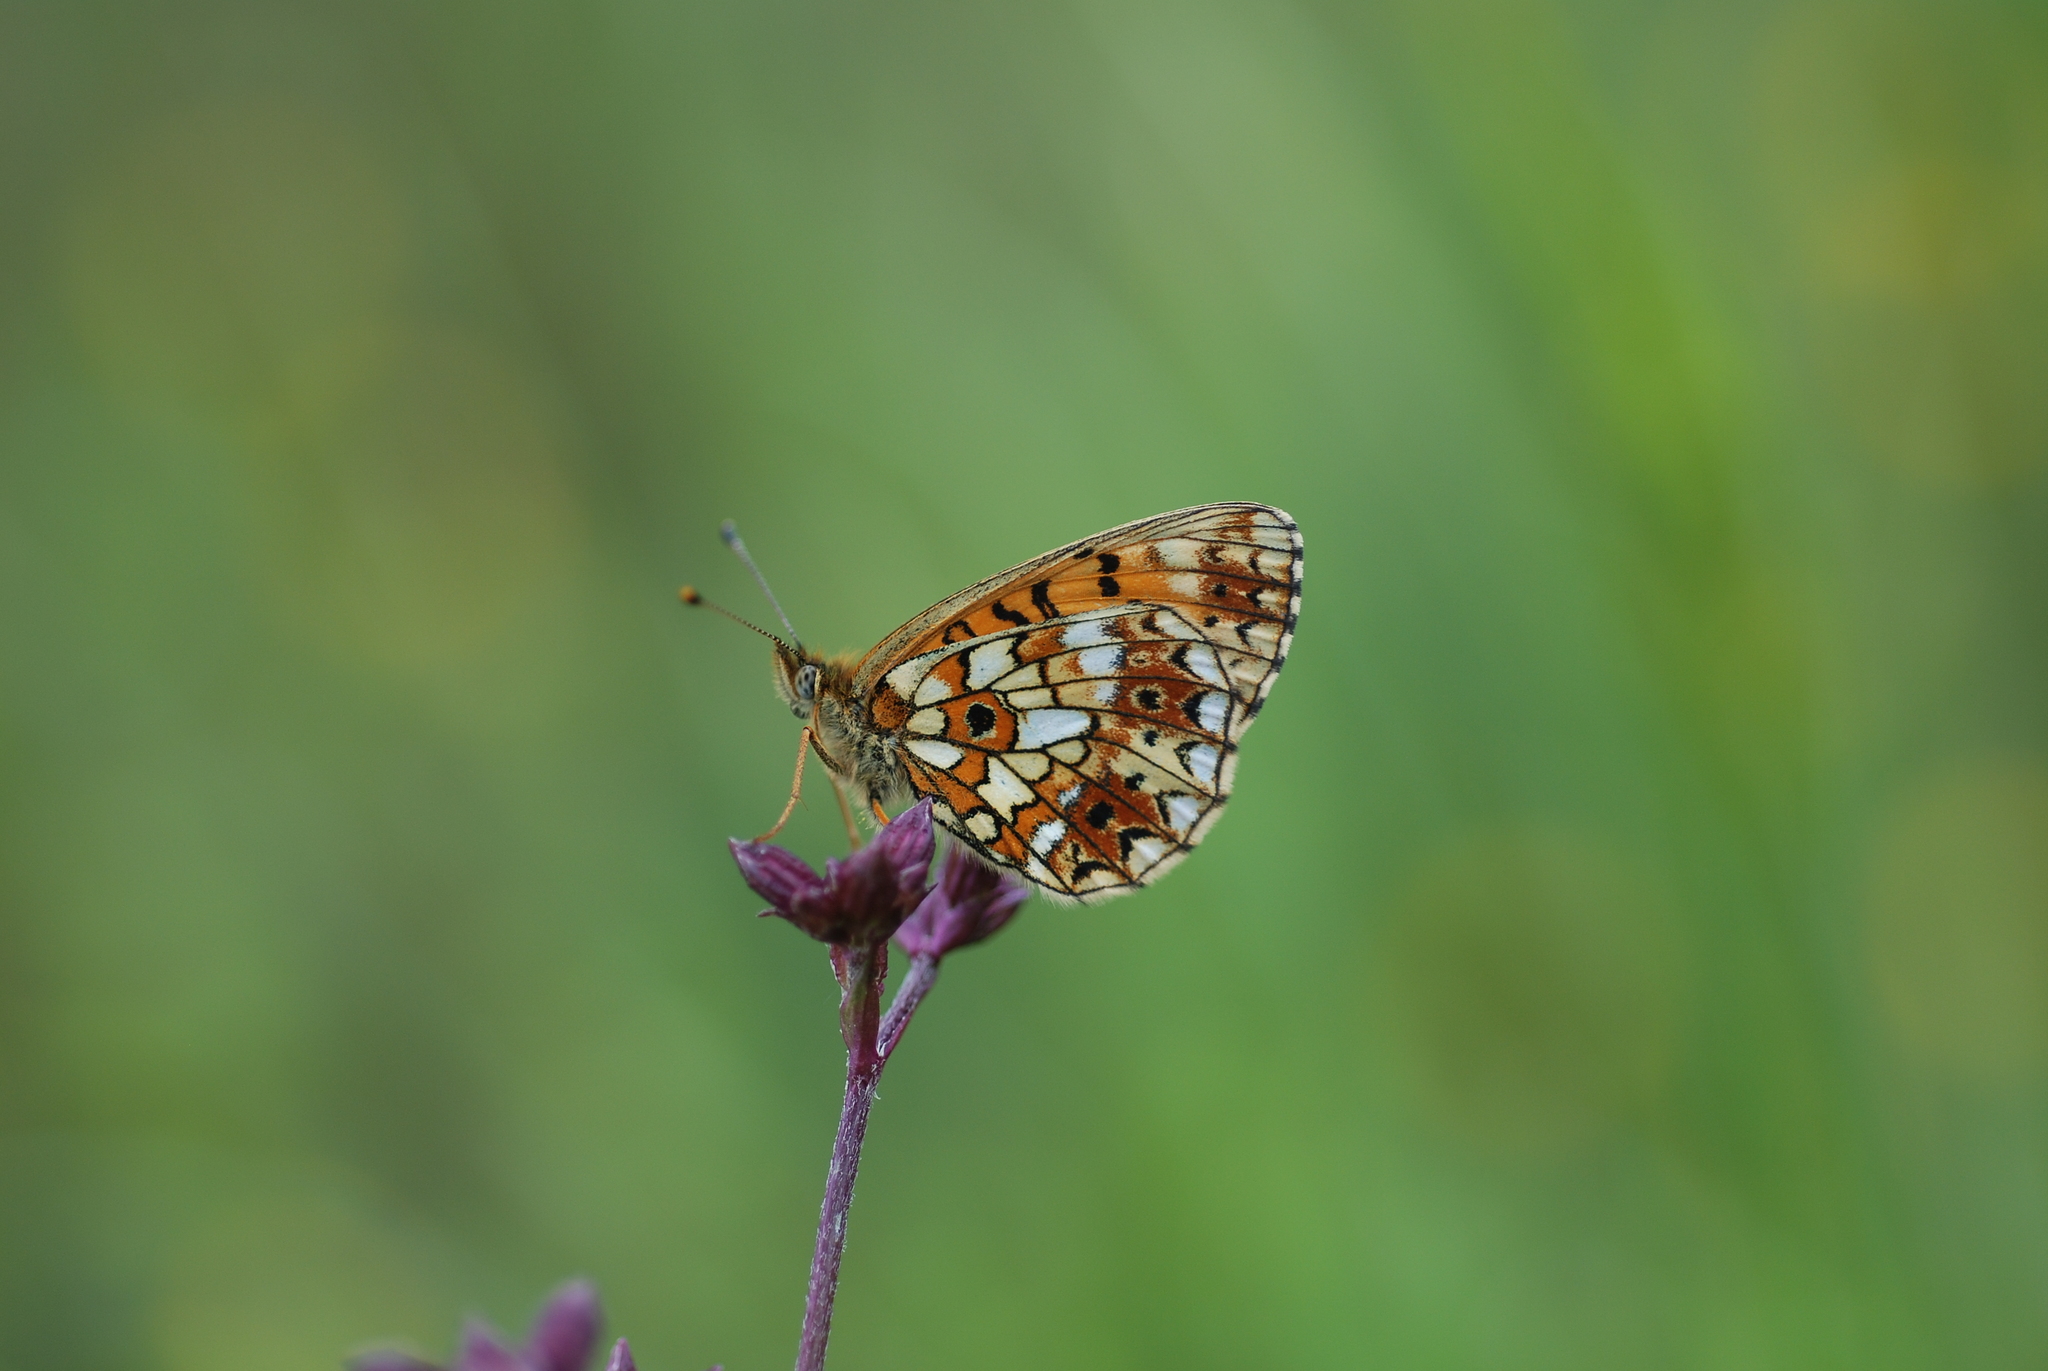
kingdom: Animalia
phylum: Arthropoda
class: Insecta
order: Lepidoptera
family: Nymphalidae
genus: Boloria
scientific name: Boloria selene
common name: Small pearl-bordered fritillary
